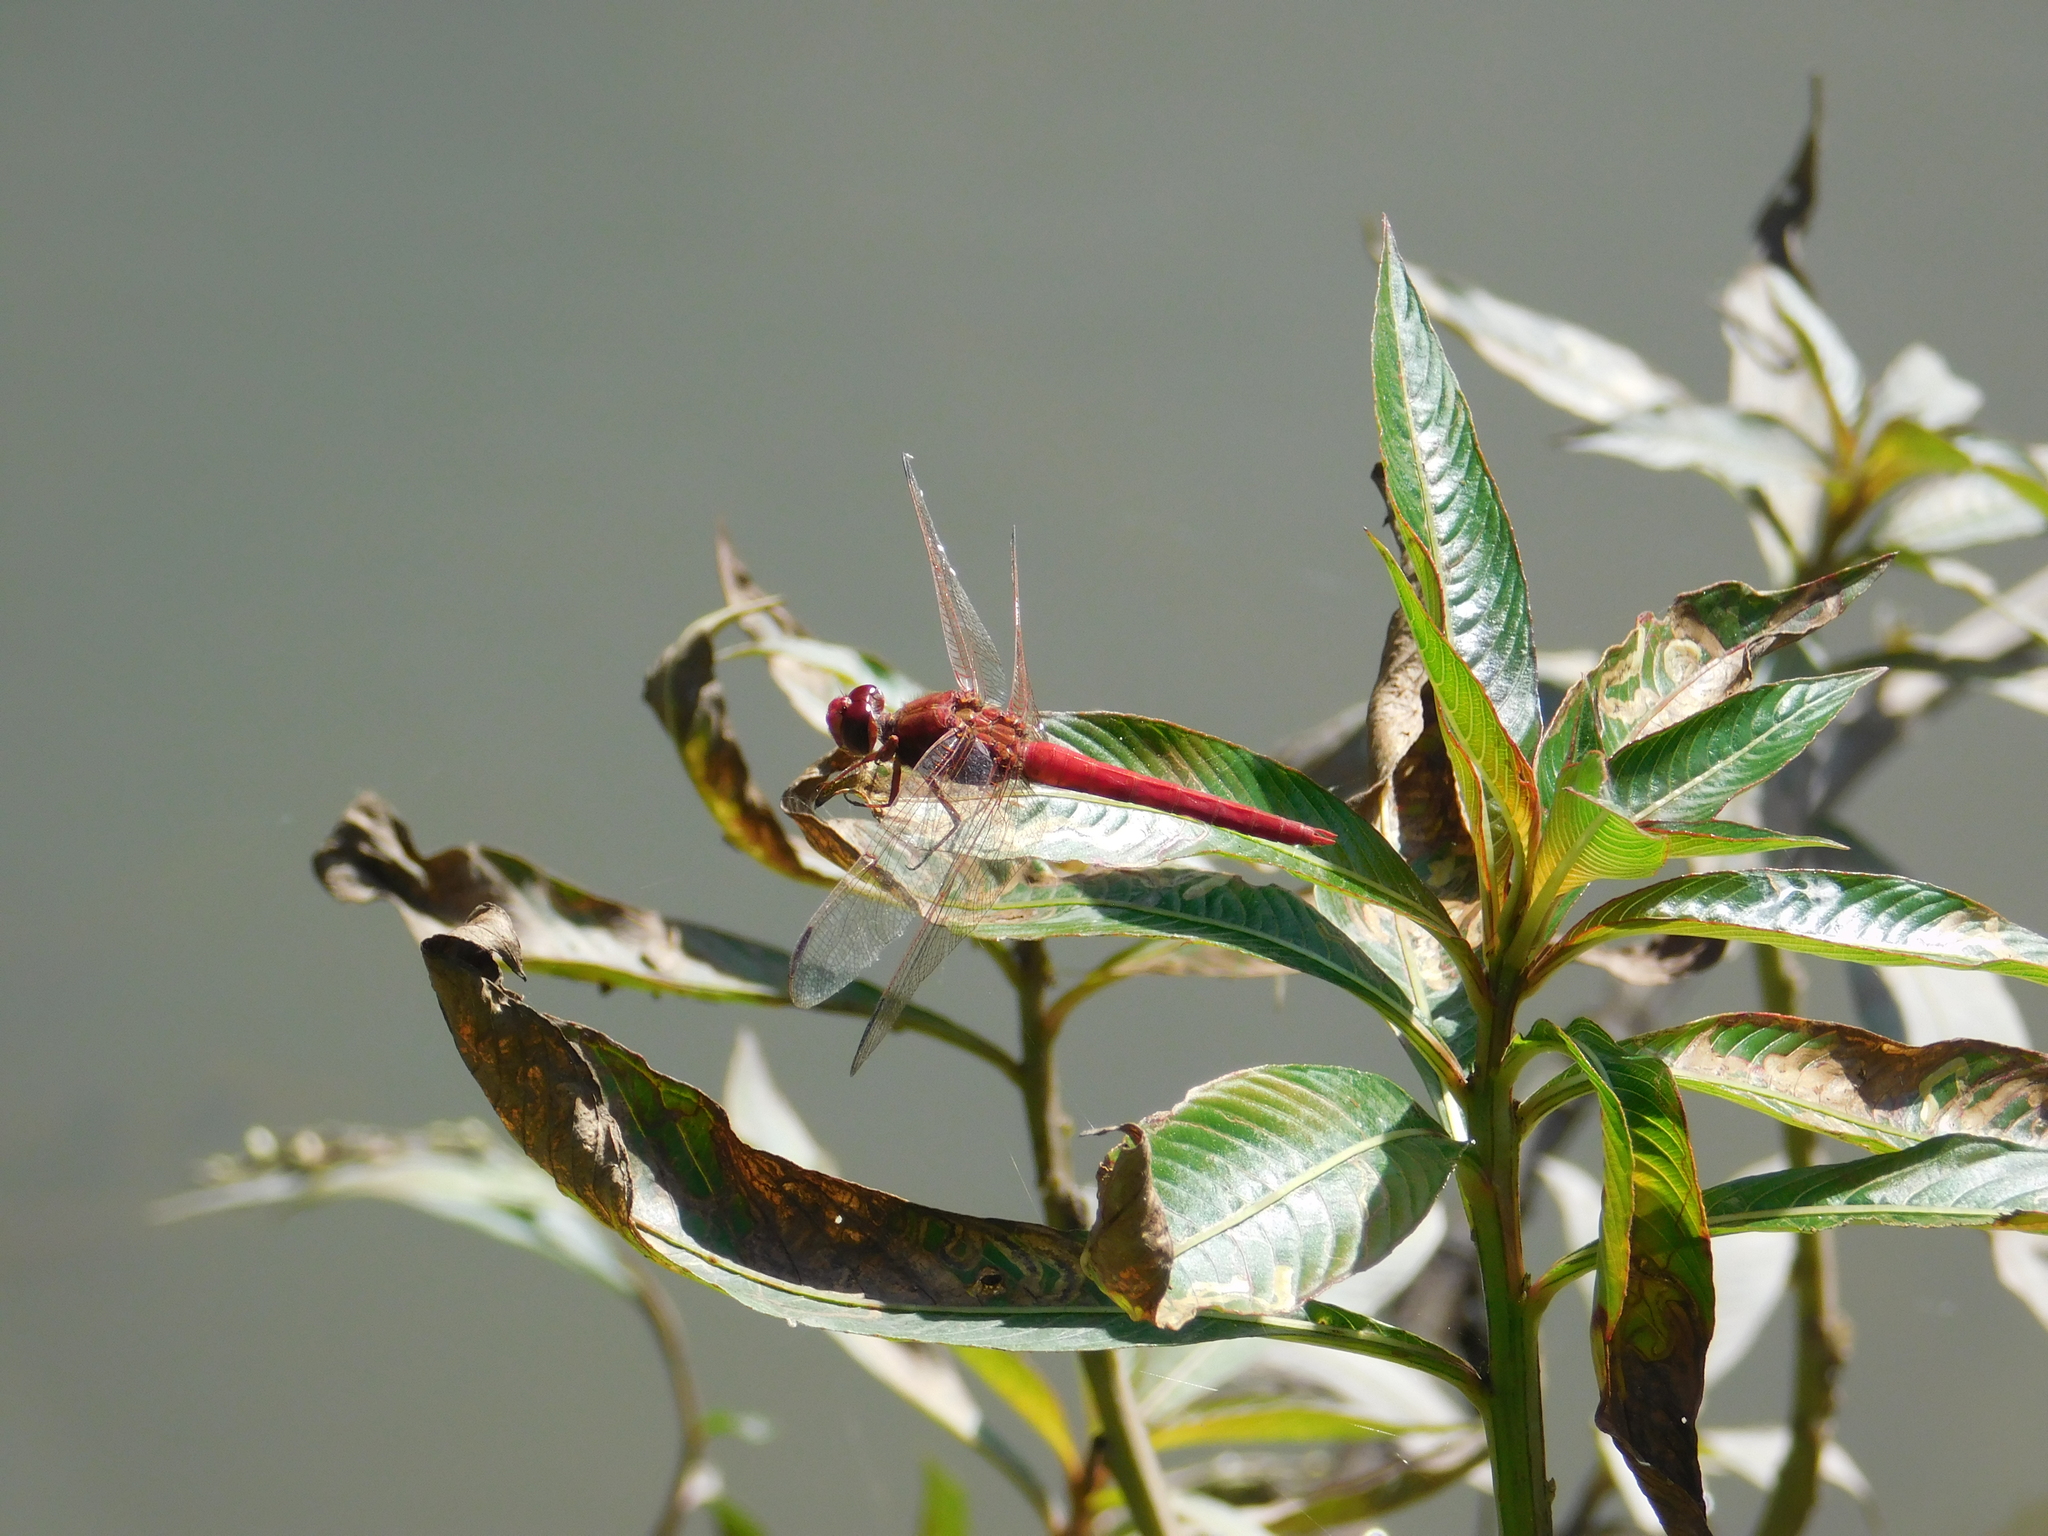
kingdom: Animalia
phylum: Arthropoda
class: Insecta
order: Odonata
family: Libellulidae
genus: Orthemis
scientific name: Orthemis nodiplaga
